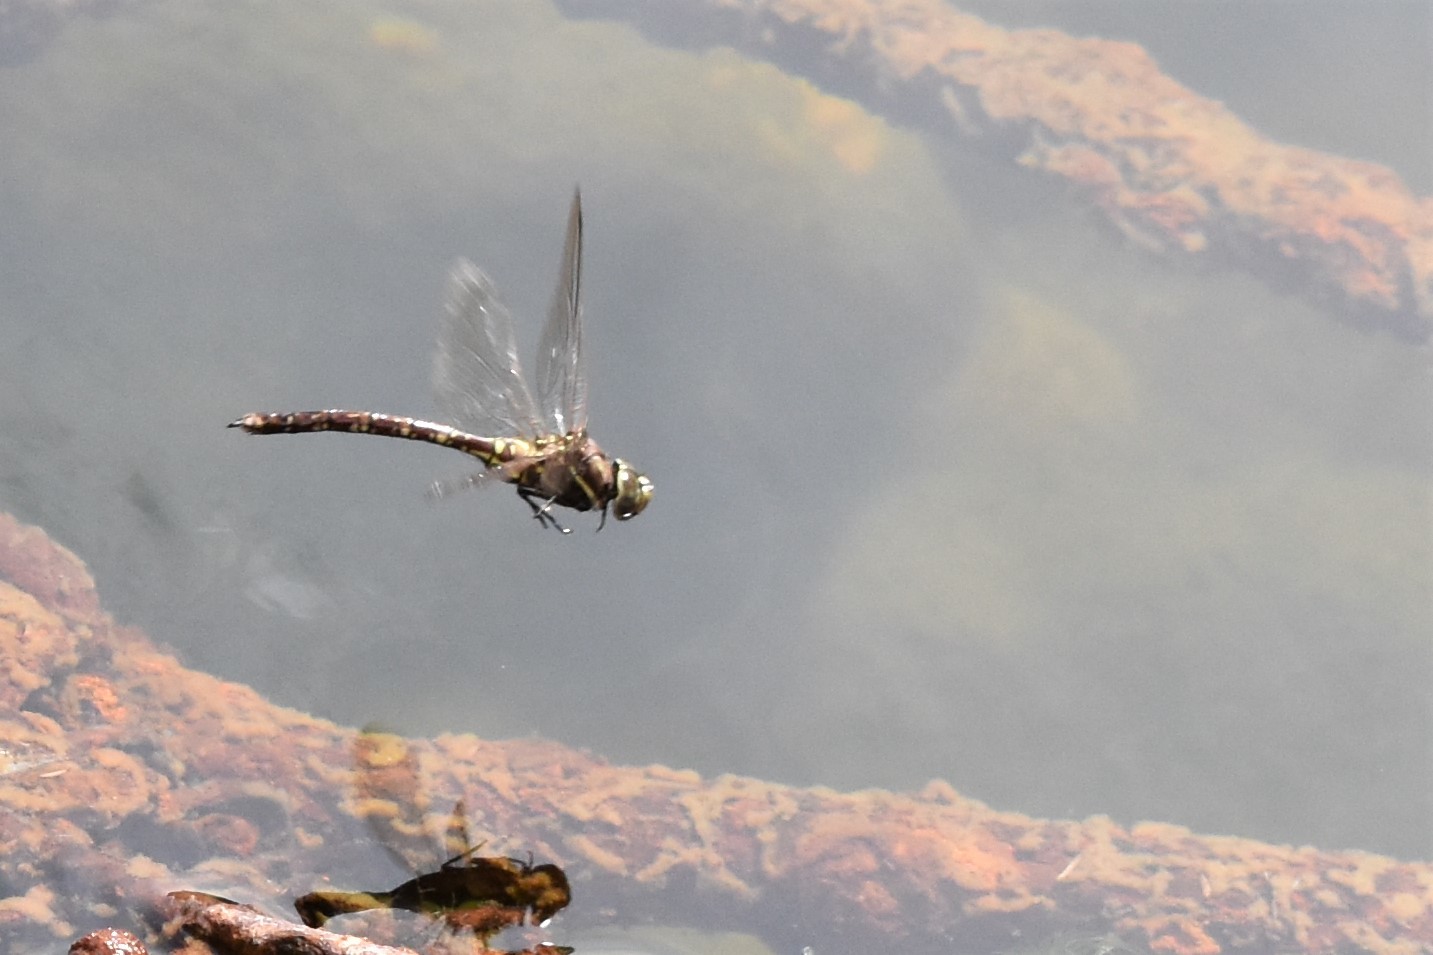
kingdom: Animalia
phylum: Arthropoda
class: Insecta
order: Odonata
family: Aeshnidae
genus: Aeshna
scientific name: Aeshna brevistyla
